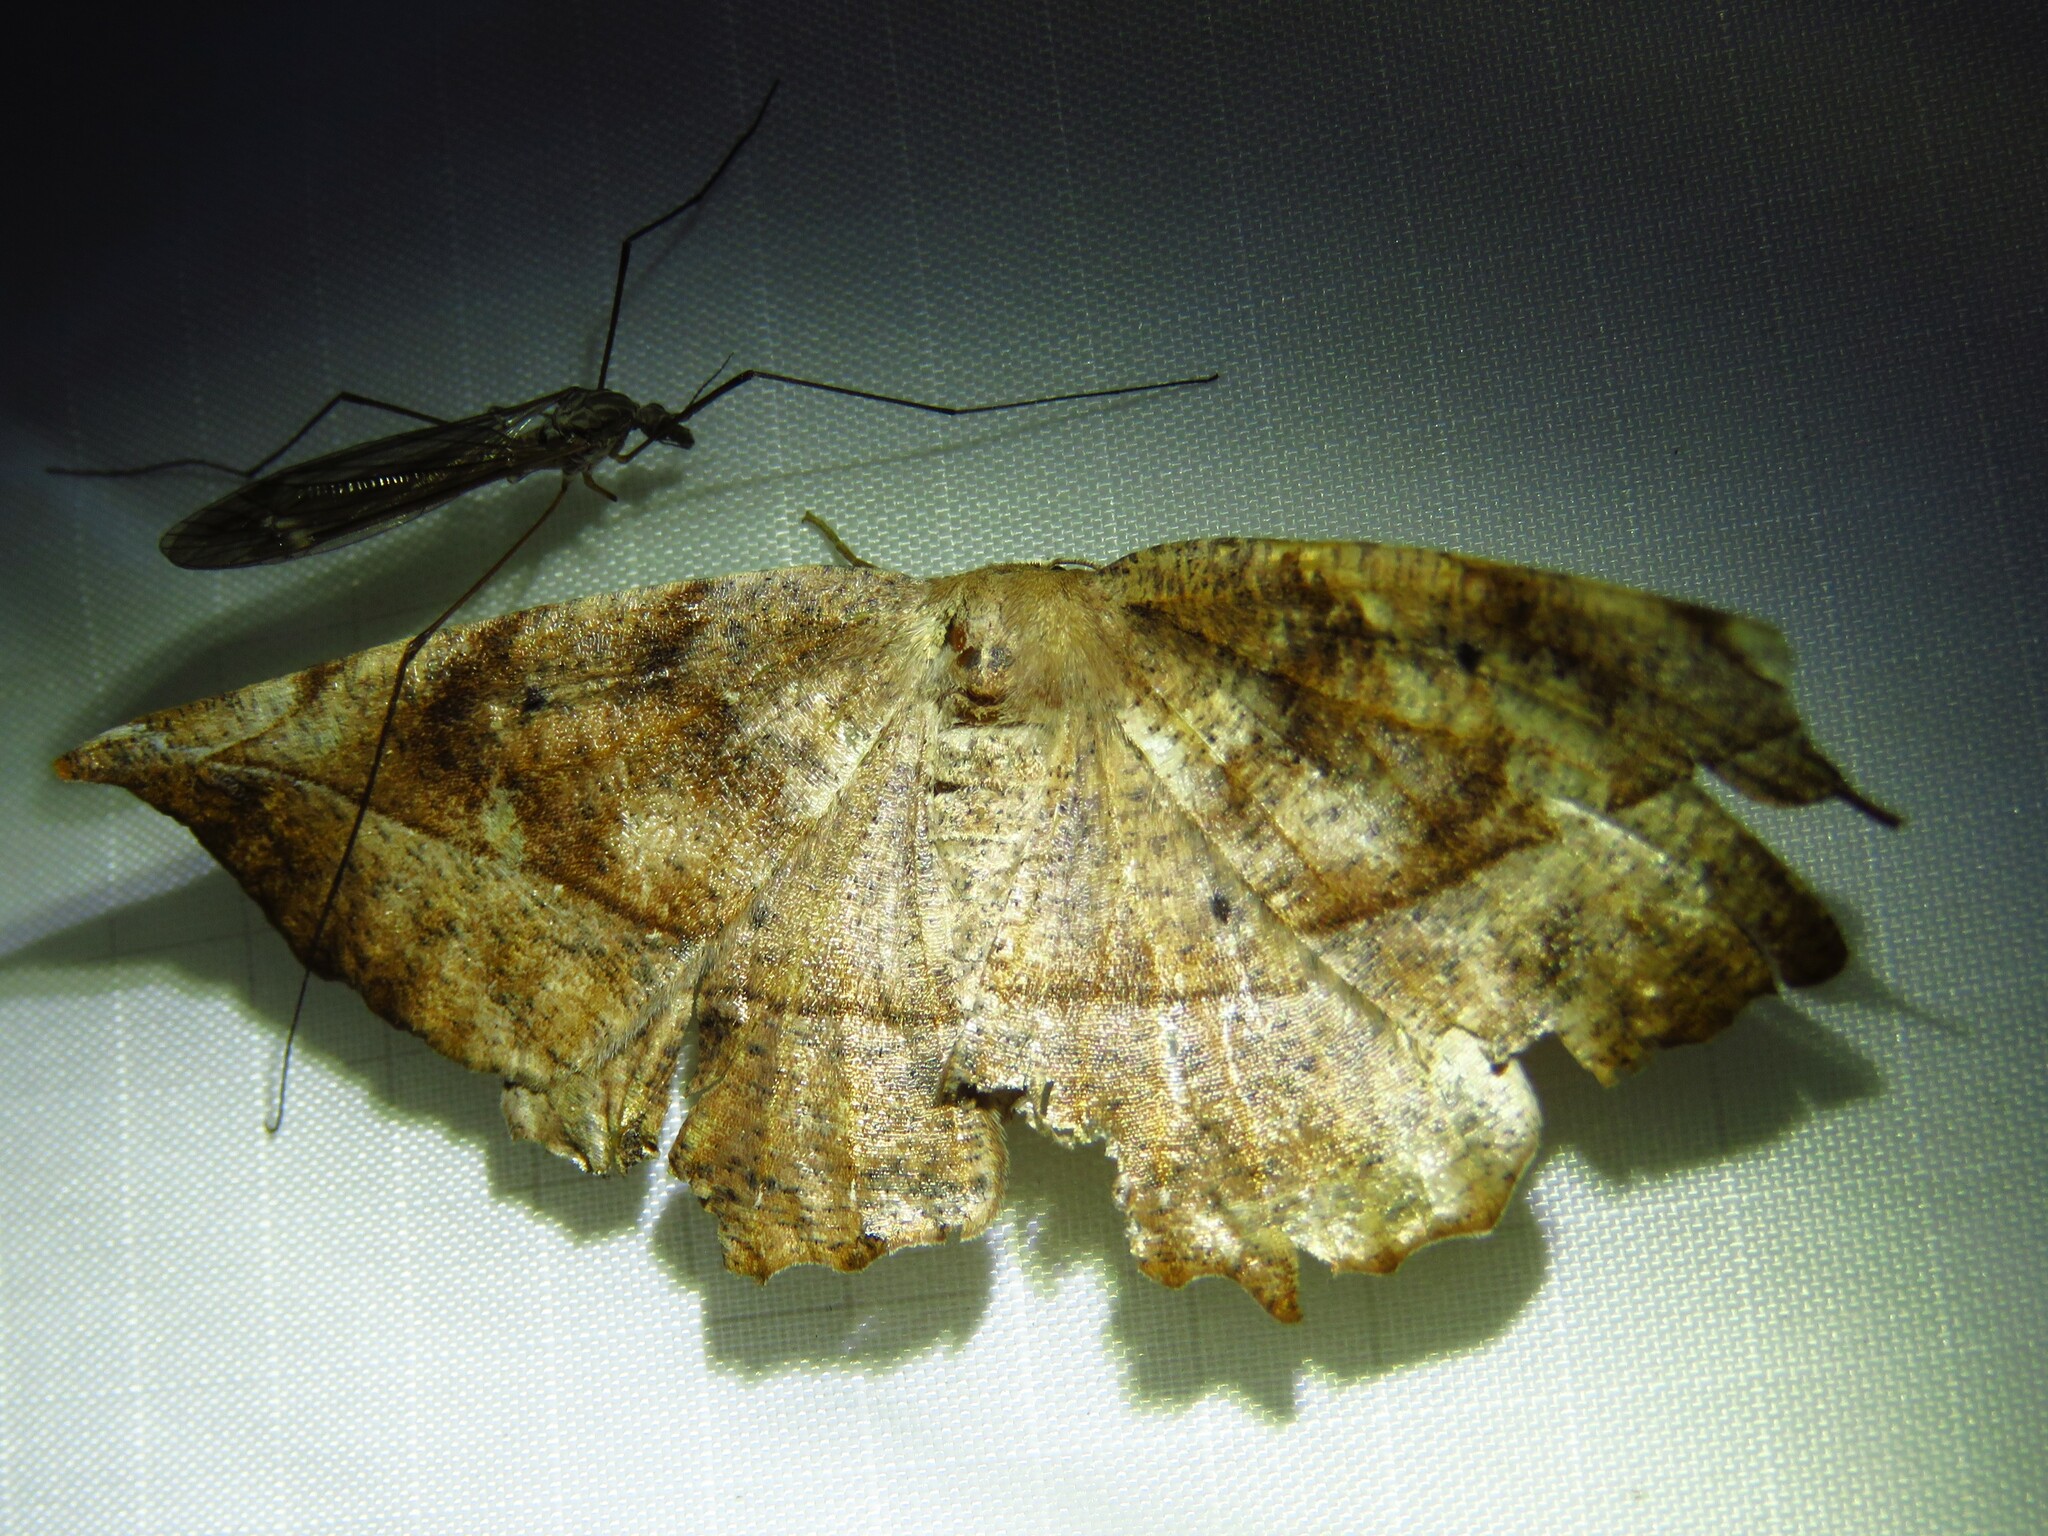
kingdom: Animalia
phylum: Arthropoda
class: Insecta
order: Lepidoptera
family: Geometridae
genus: Eutrapela
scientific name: Eutrapela clemataria
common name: Curved-toothed geometer
